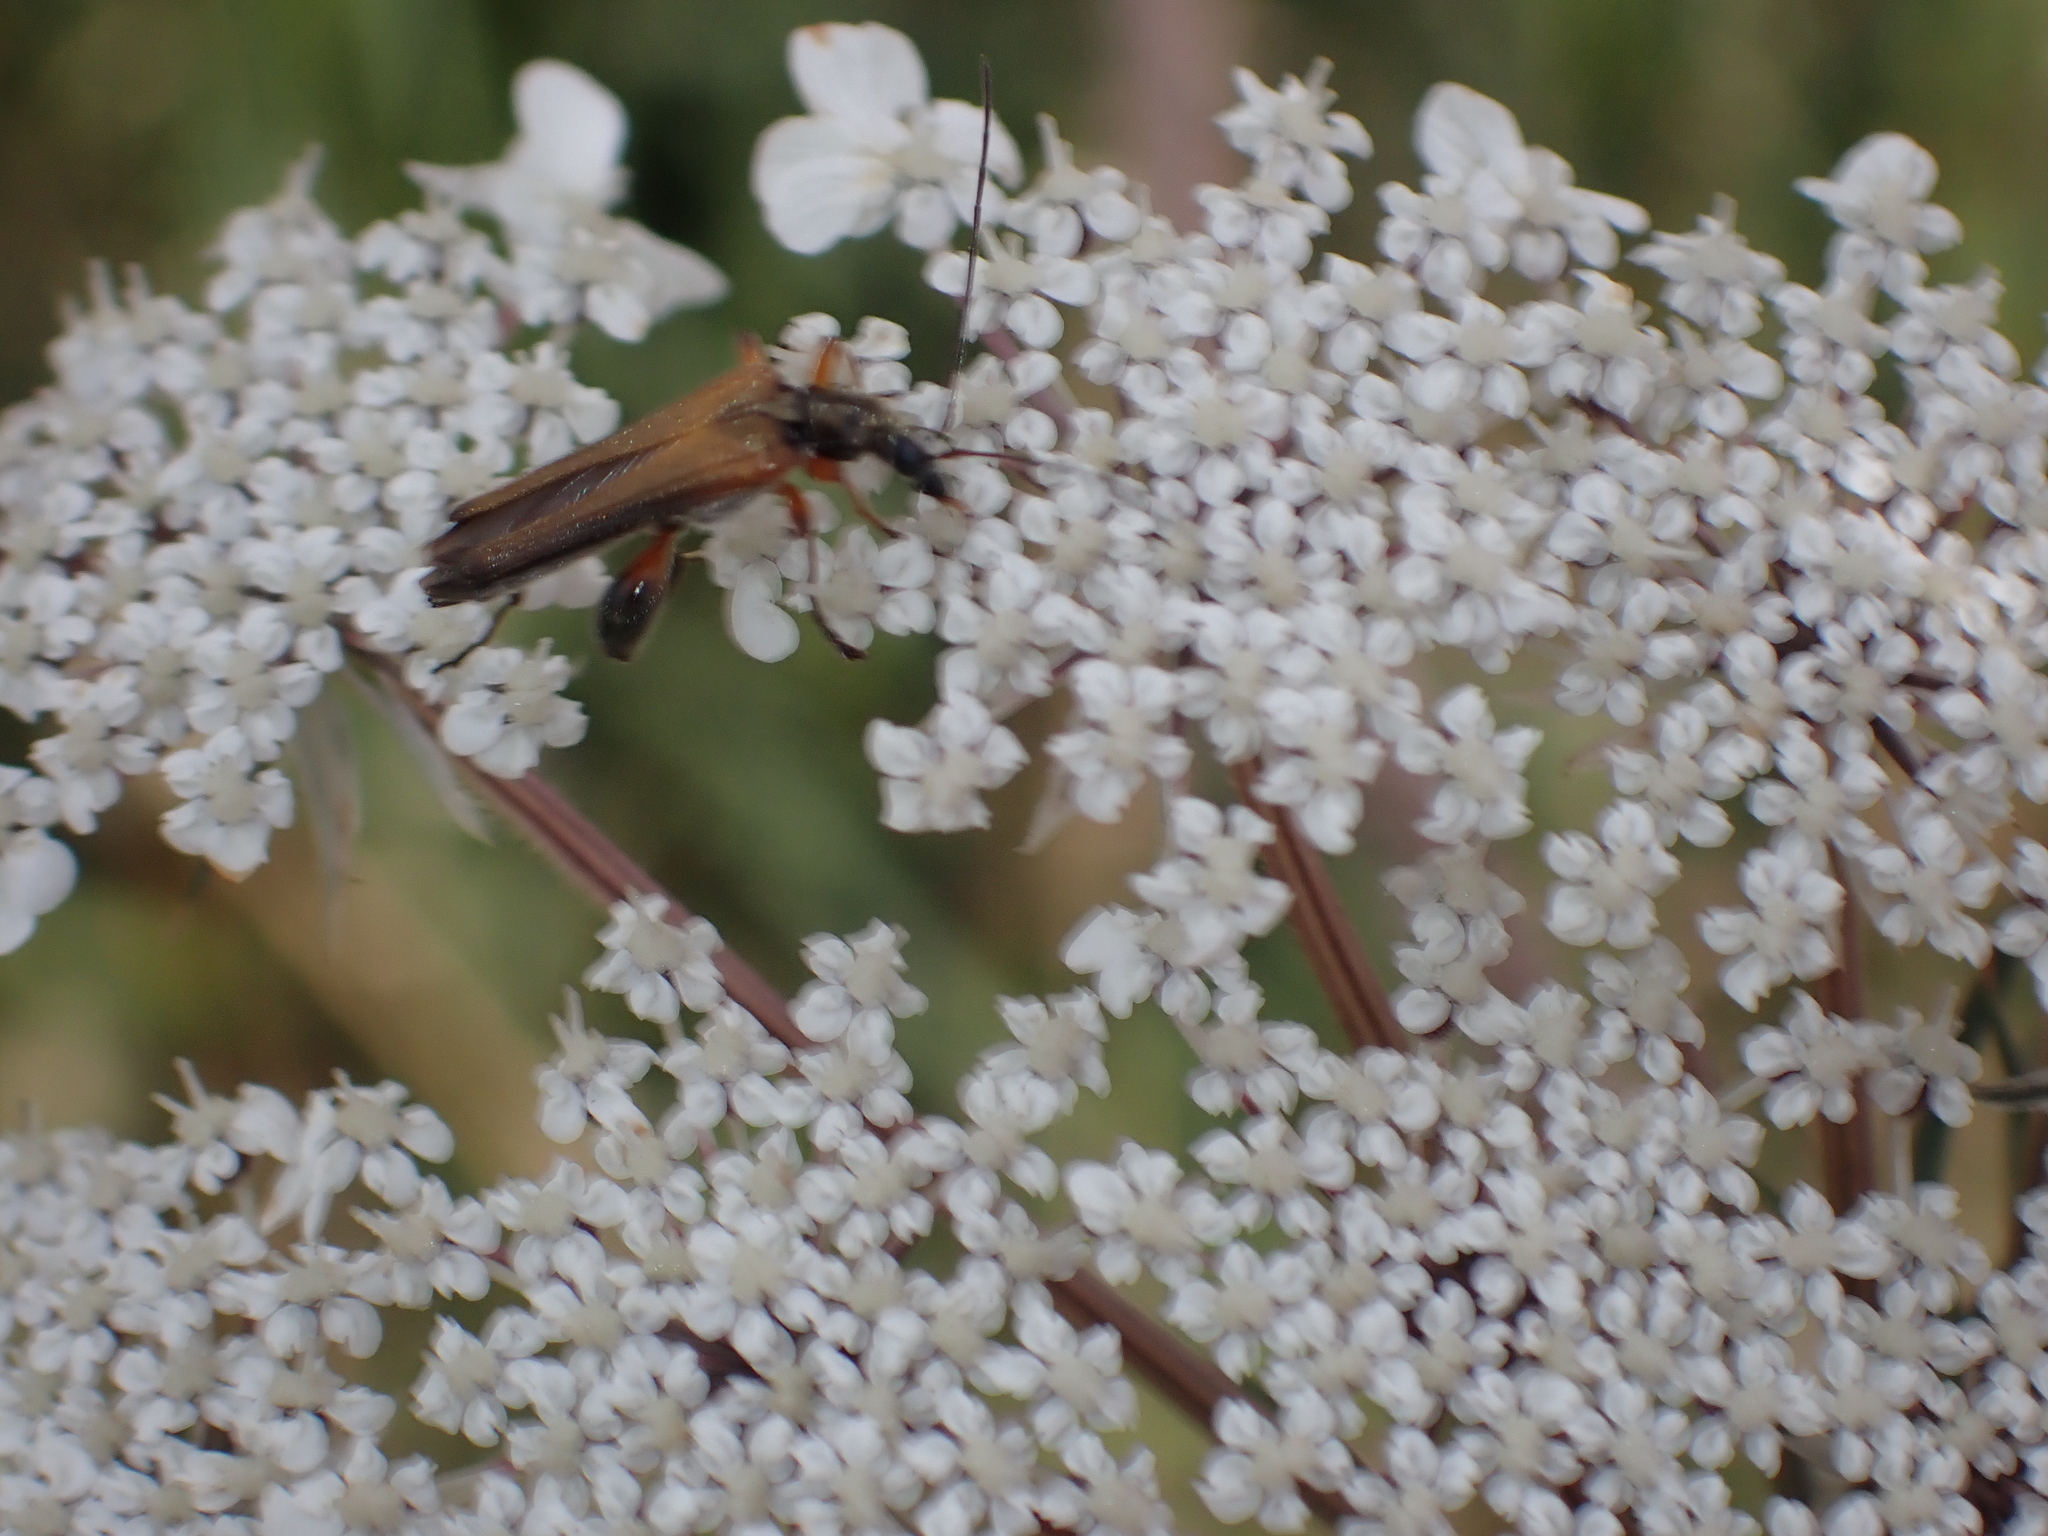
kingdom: Animalia
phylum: Arthropoda
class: Insecta
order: Coleoptera
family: Oedemeridae
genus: Oedemera
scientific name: Oedemera podagrariae
